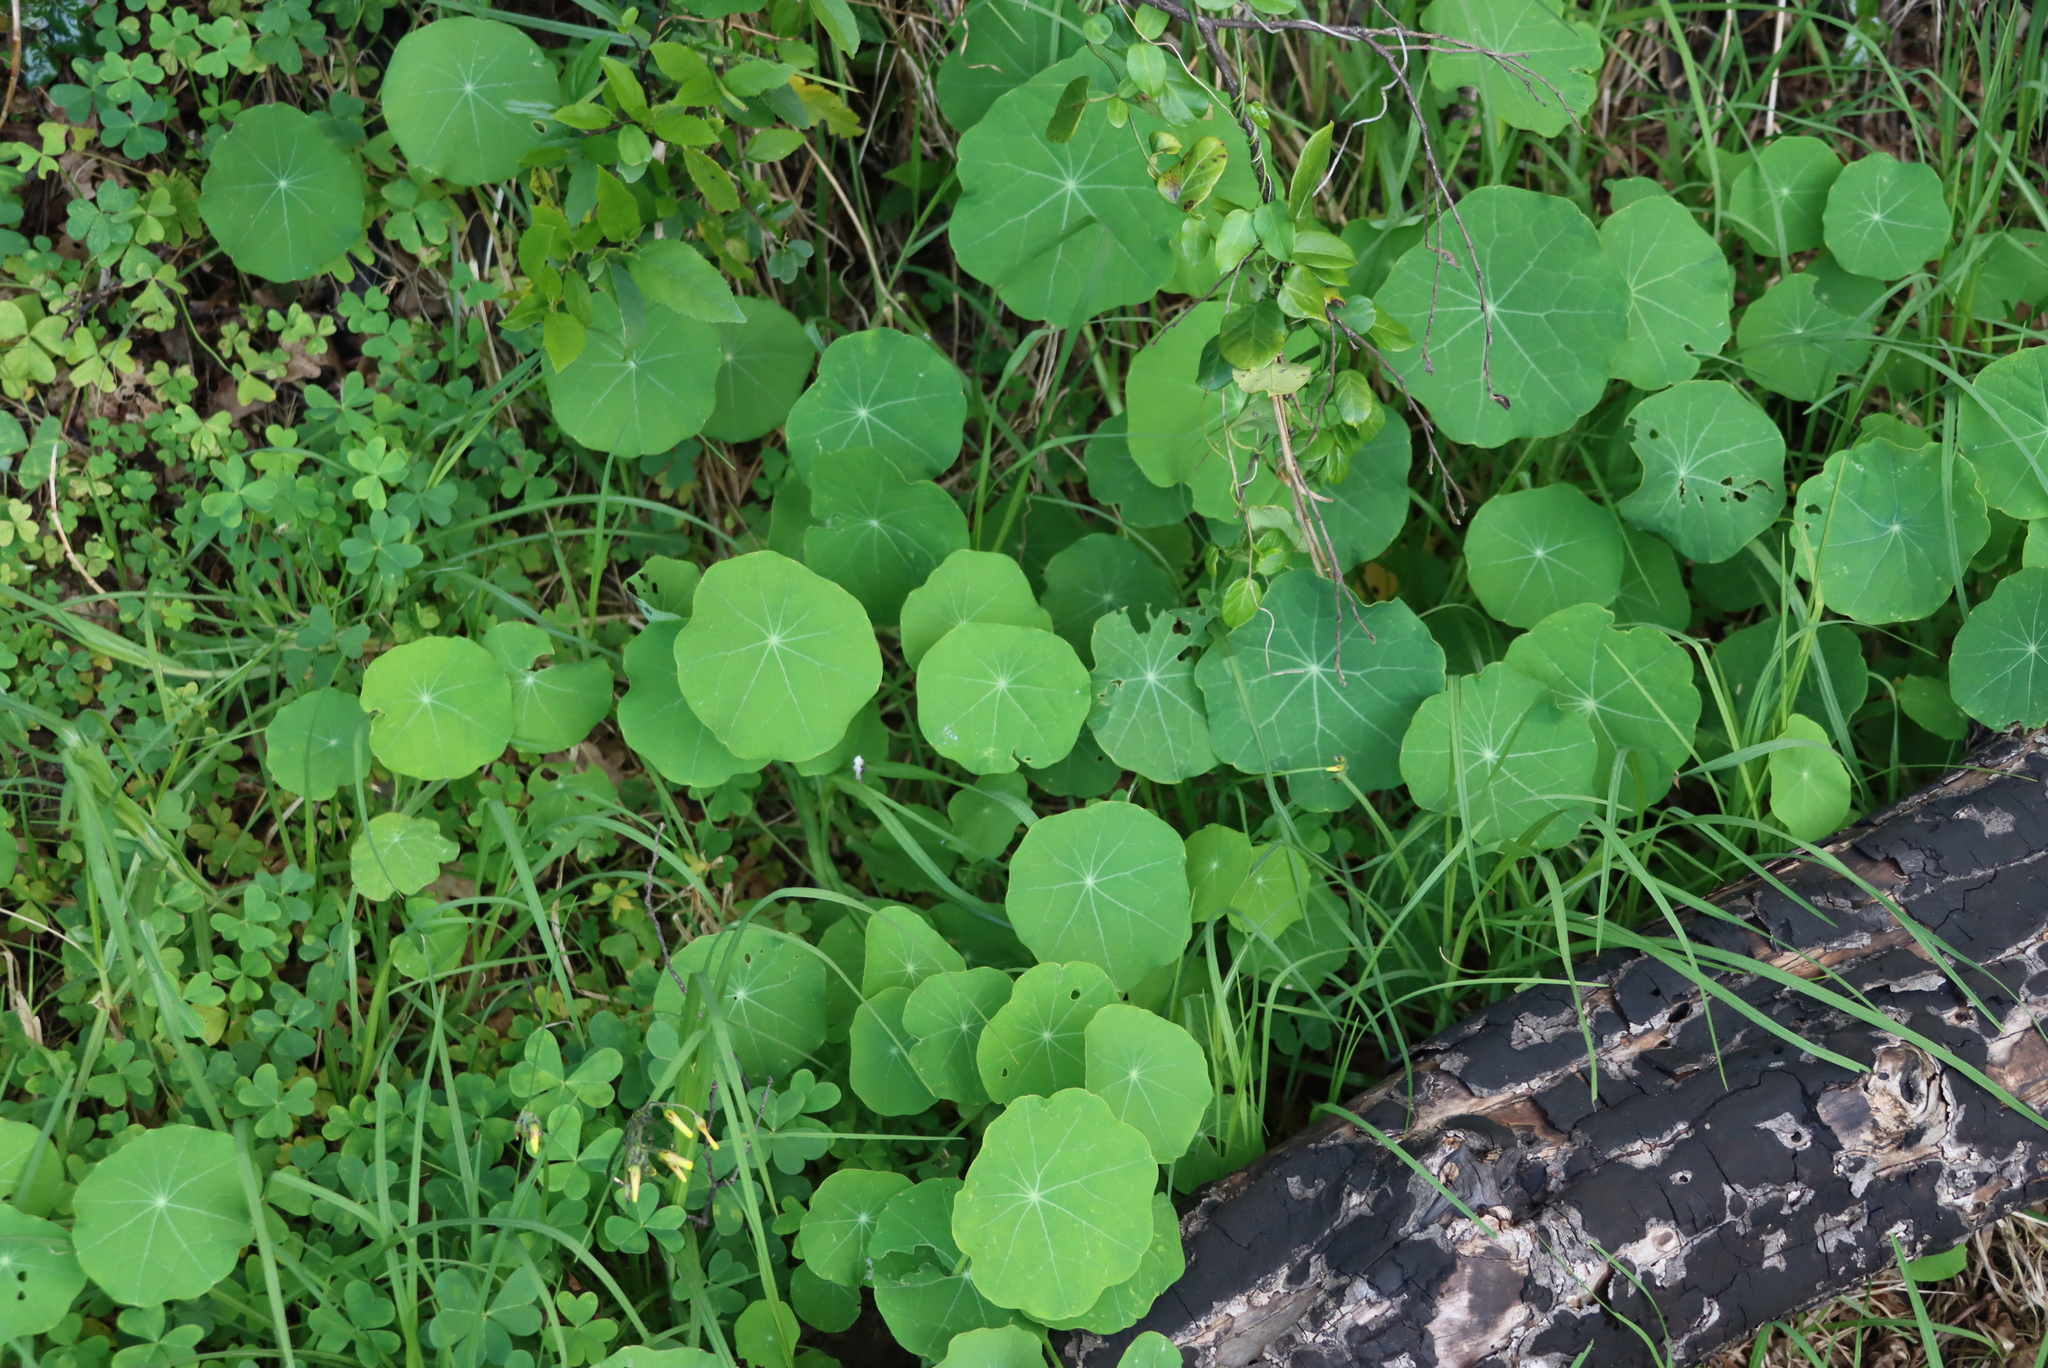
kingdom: Plantae
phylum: Tracheophyta
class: Magnoliopsida
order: Brassicales
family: Tropaeolaceae
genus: Tropaeolum
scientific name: Tropaeolum majus
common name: Nasturtium
